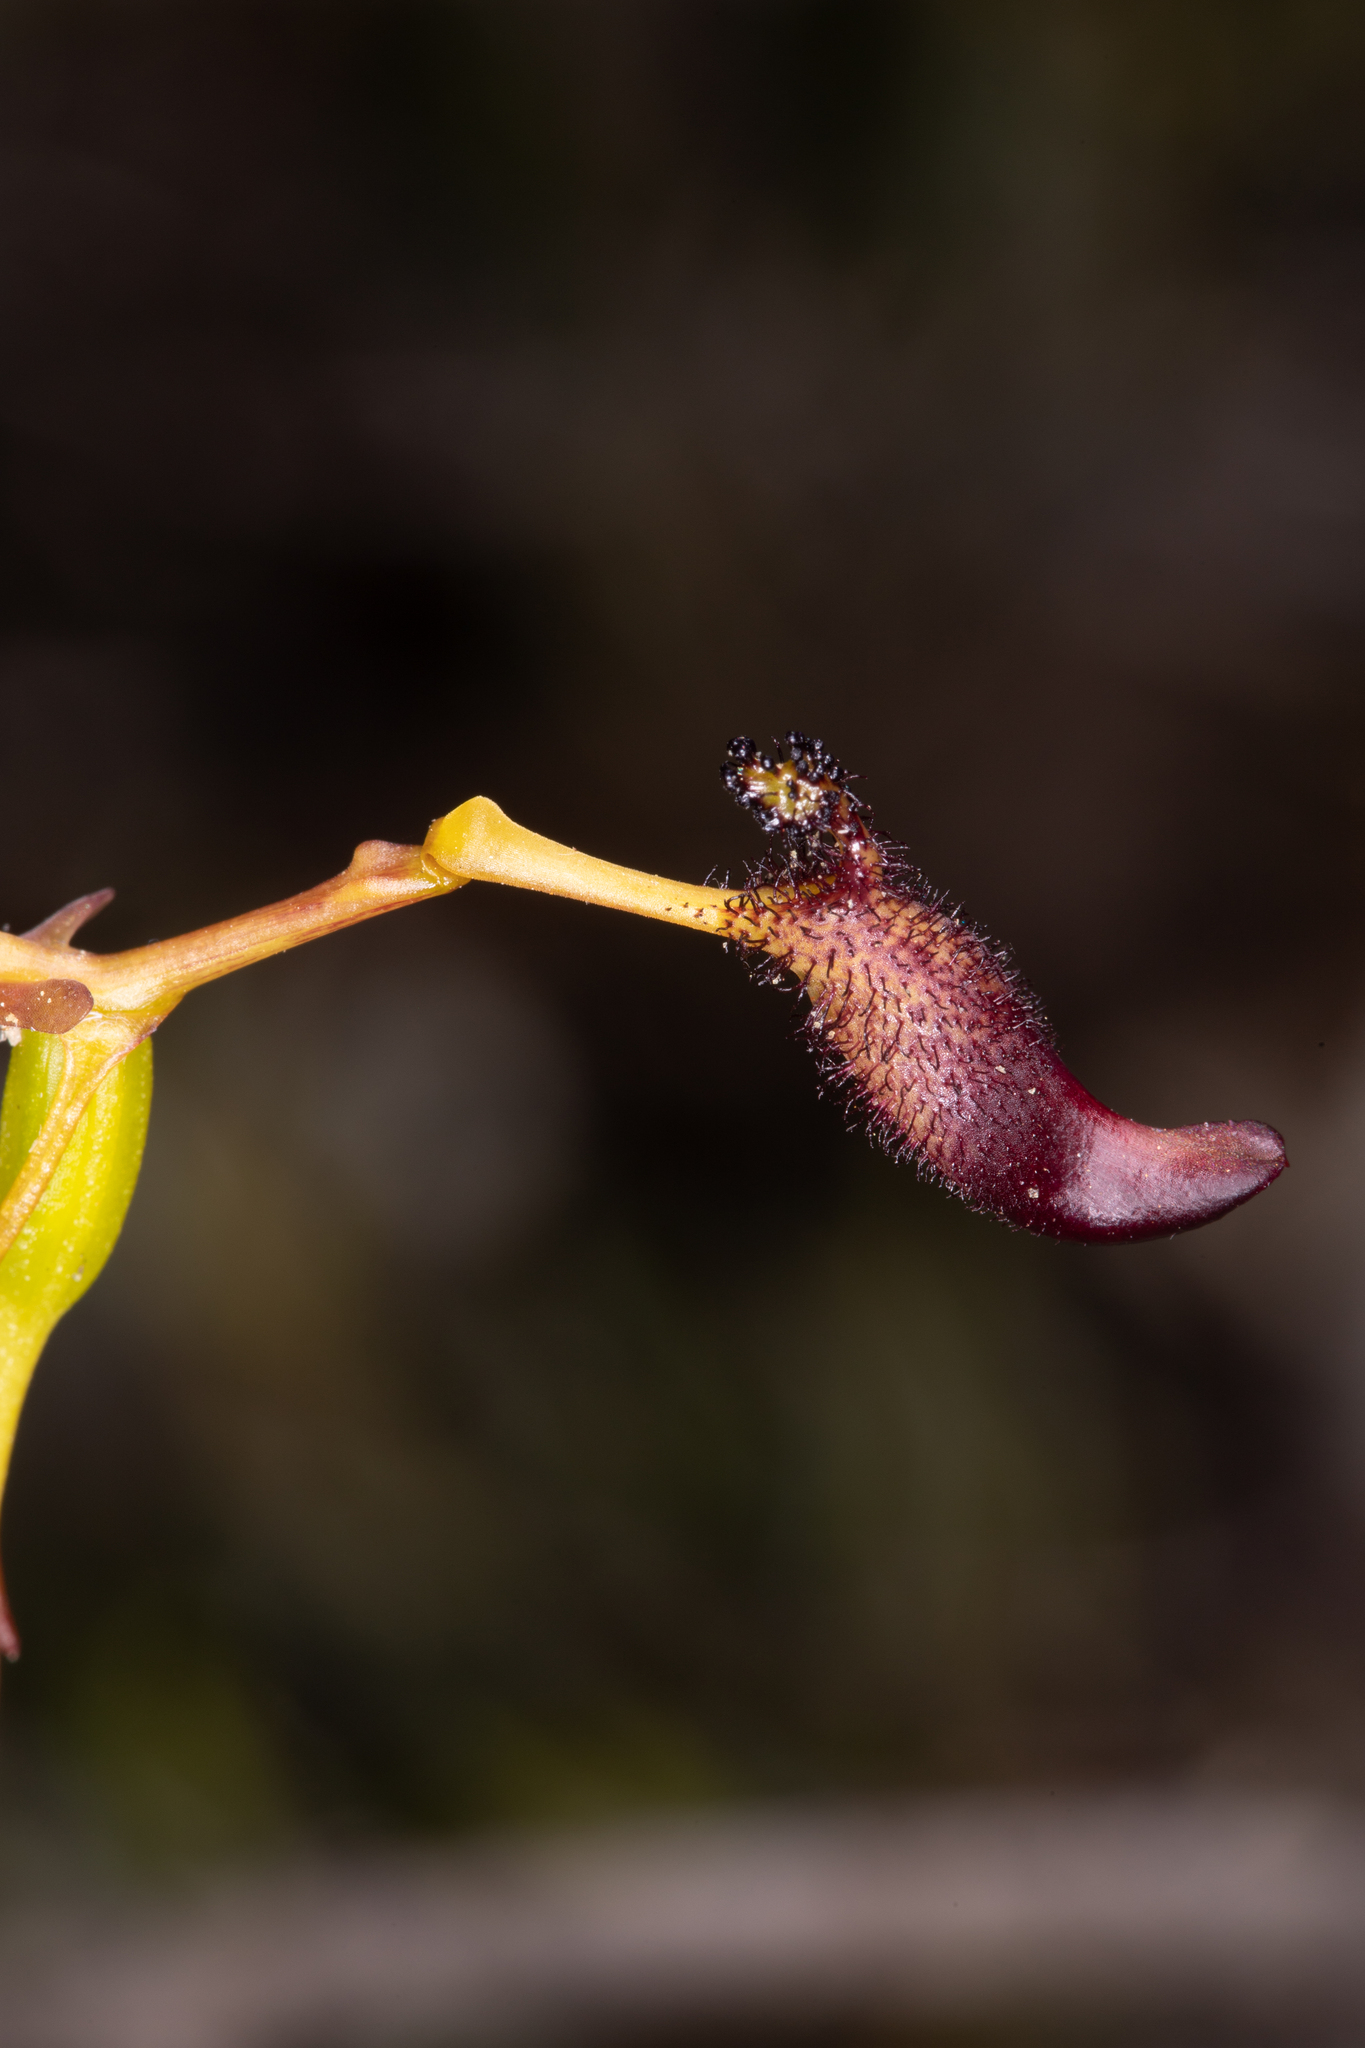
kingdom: Plantae
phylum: Tracheophyta
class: Liliopsida
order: Asparagales
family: Orchidaceae
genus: Drakaea
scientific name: Drakaea gracilis
